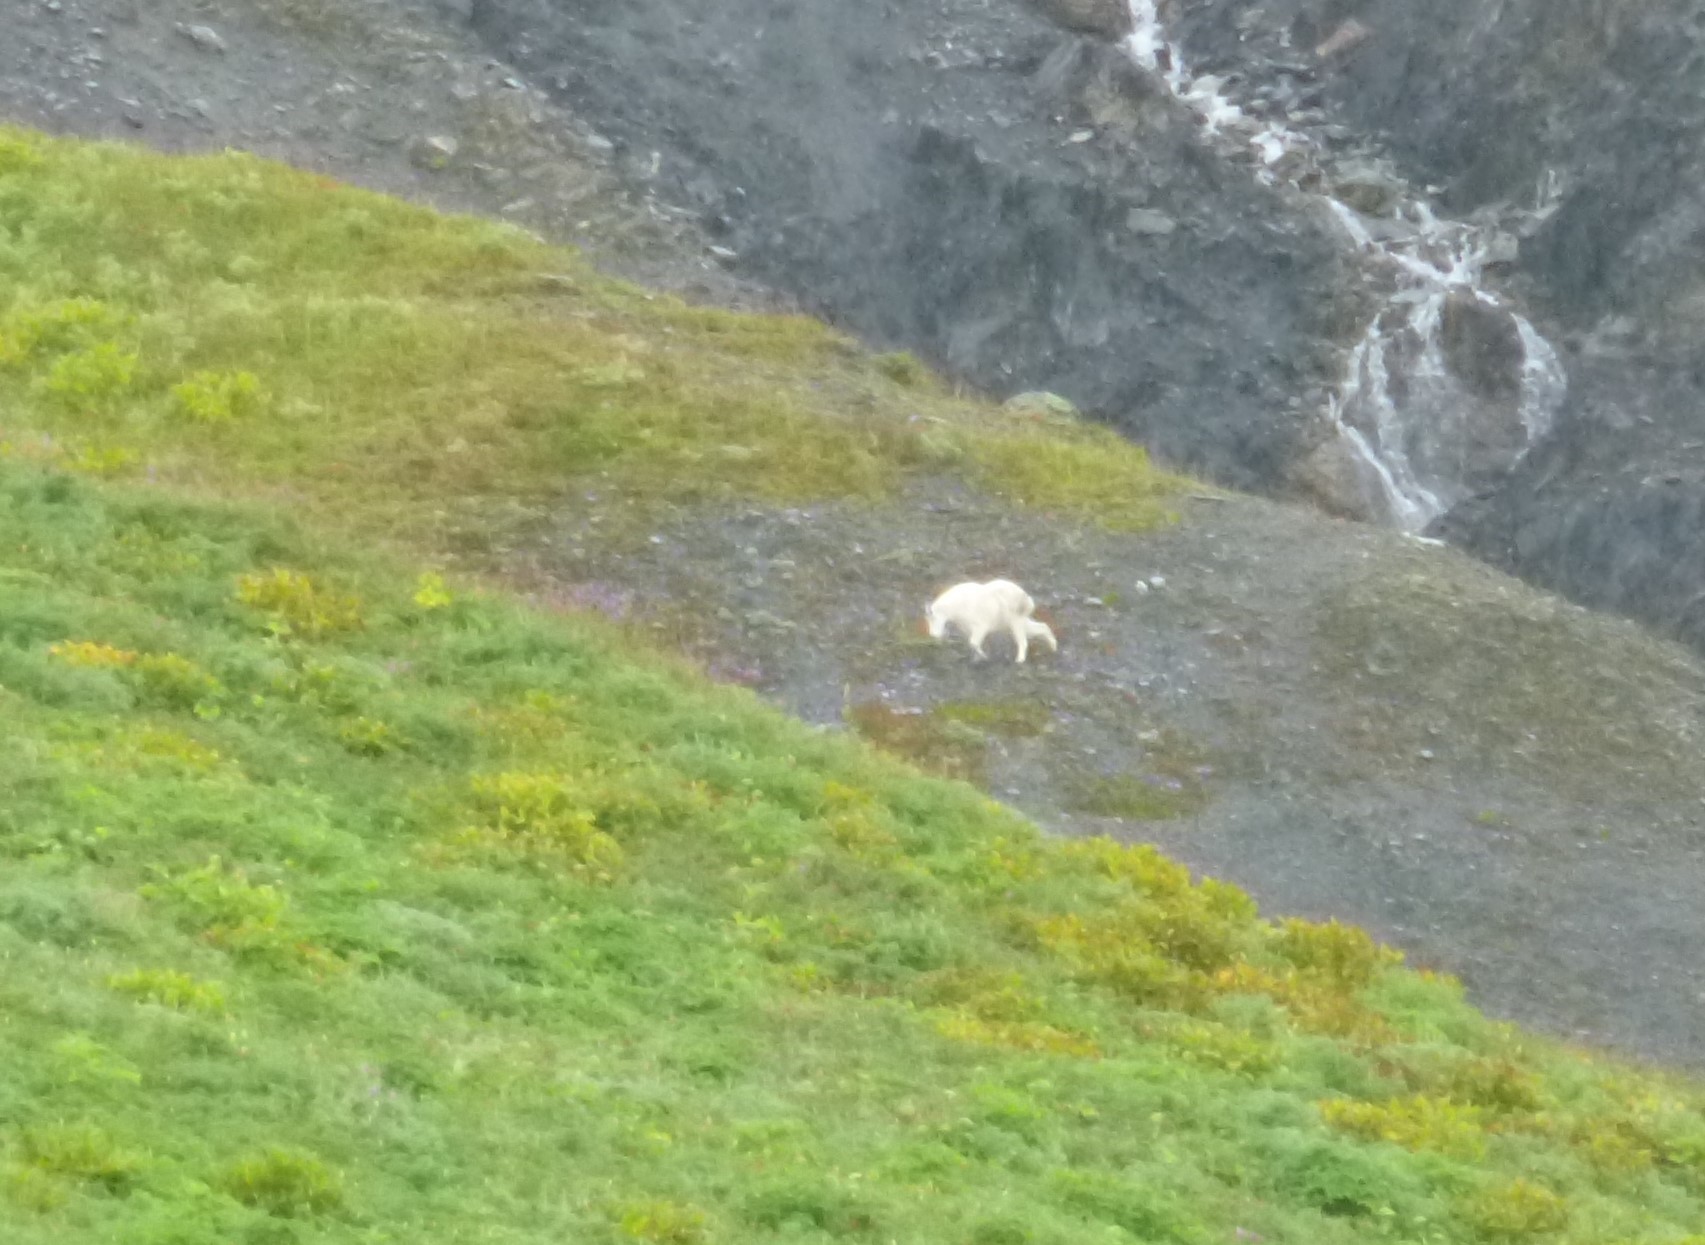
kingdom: Animalia
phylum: Chordata
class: Mammalia
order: Artiodactyla
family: Bovidae
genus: Oreamnos
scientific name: Oreamnos americanus
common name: Mountain goat
